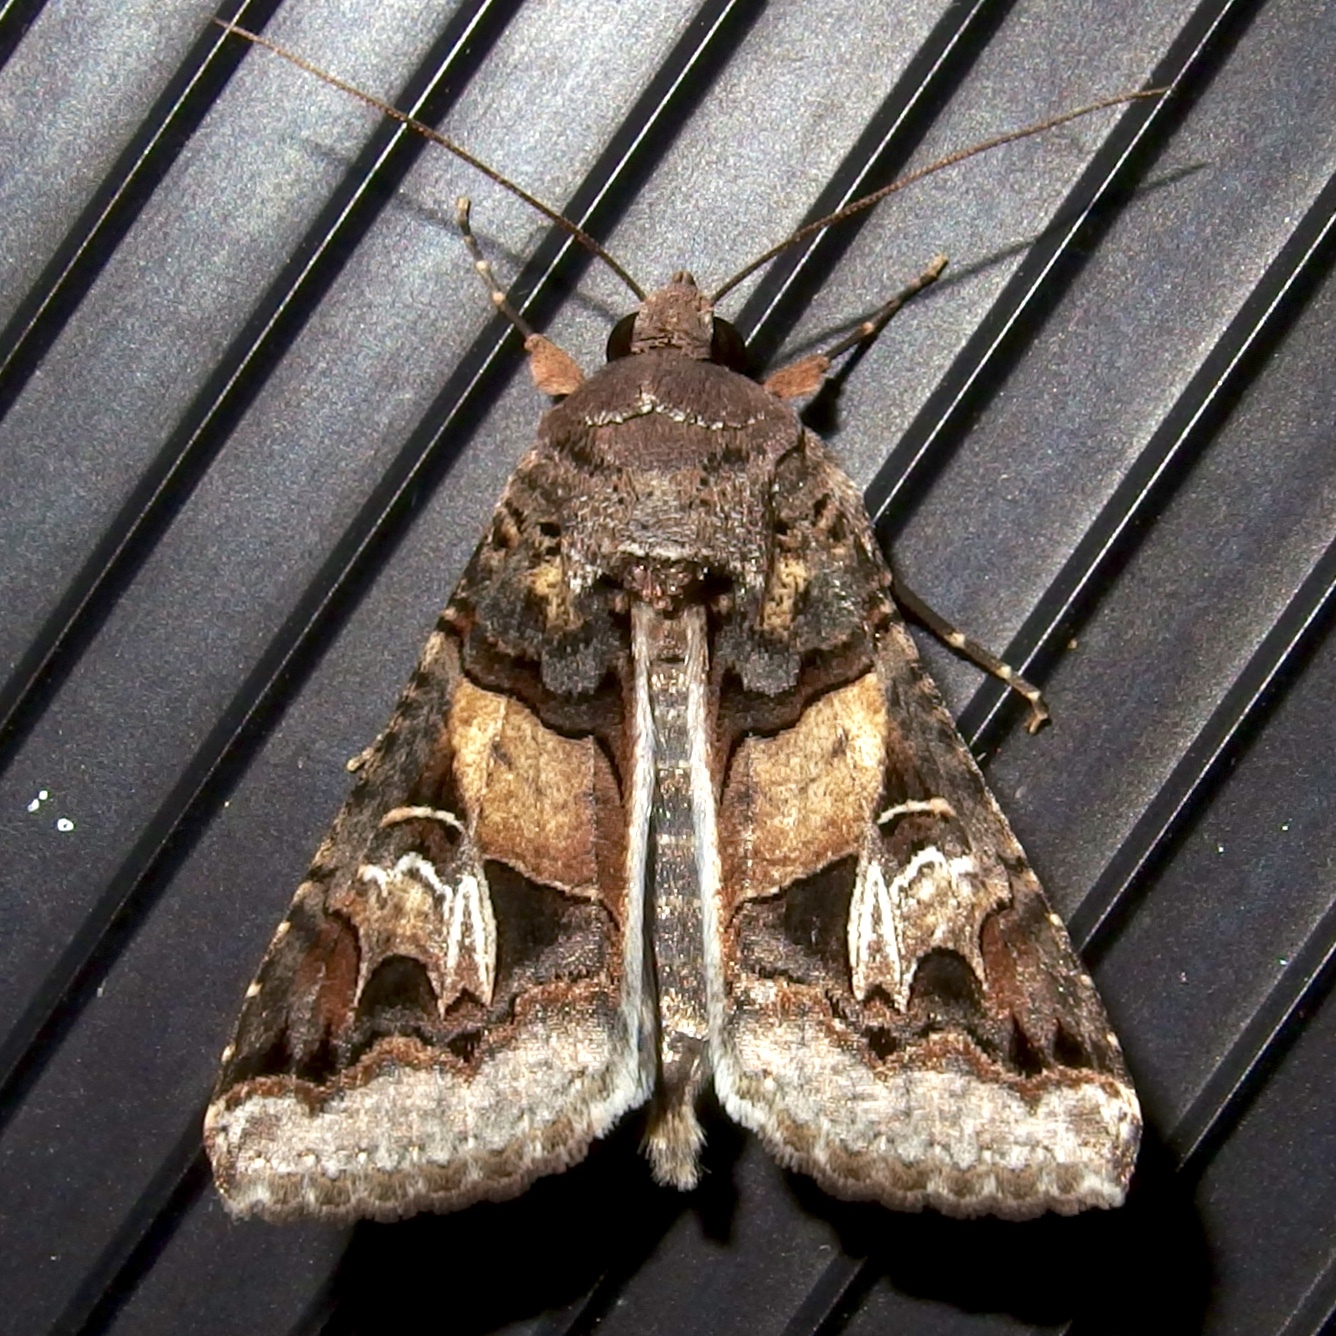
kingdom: Animalia
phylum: Arthropoda
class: Insecta
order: Lepidoptera
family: Erebidae
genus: Melipotis
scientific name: Melipotis novanda
